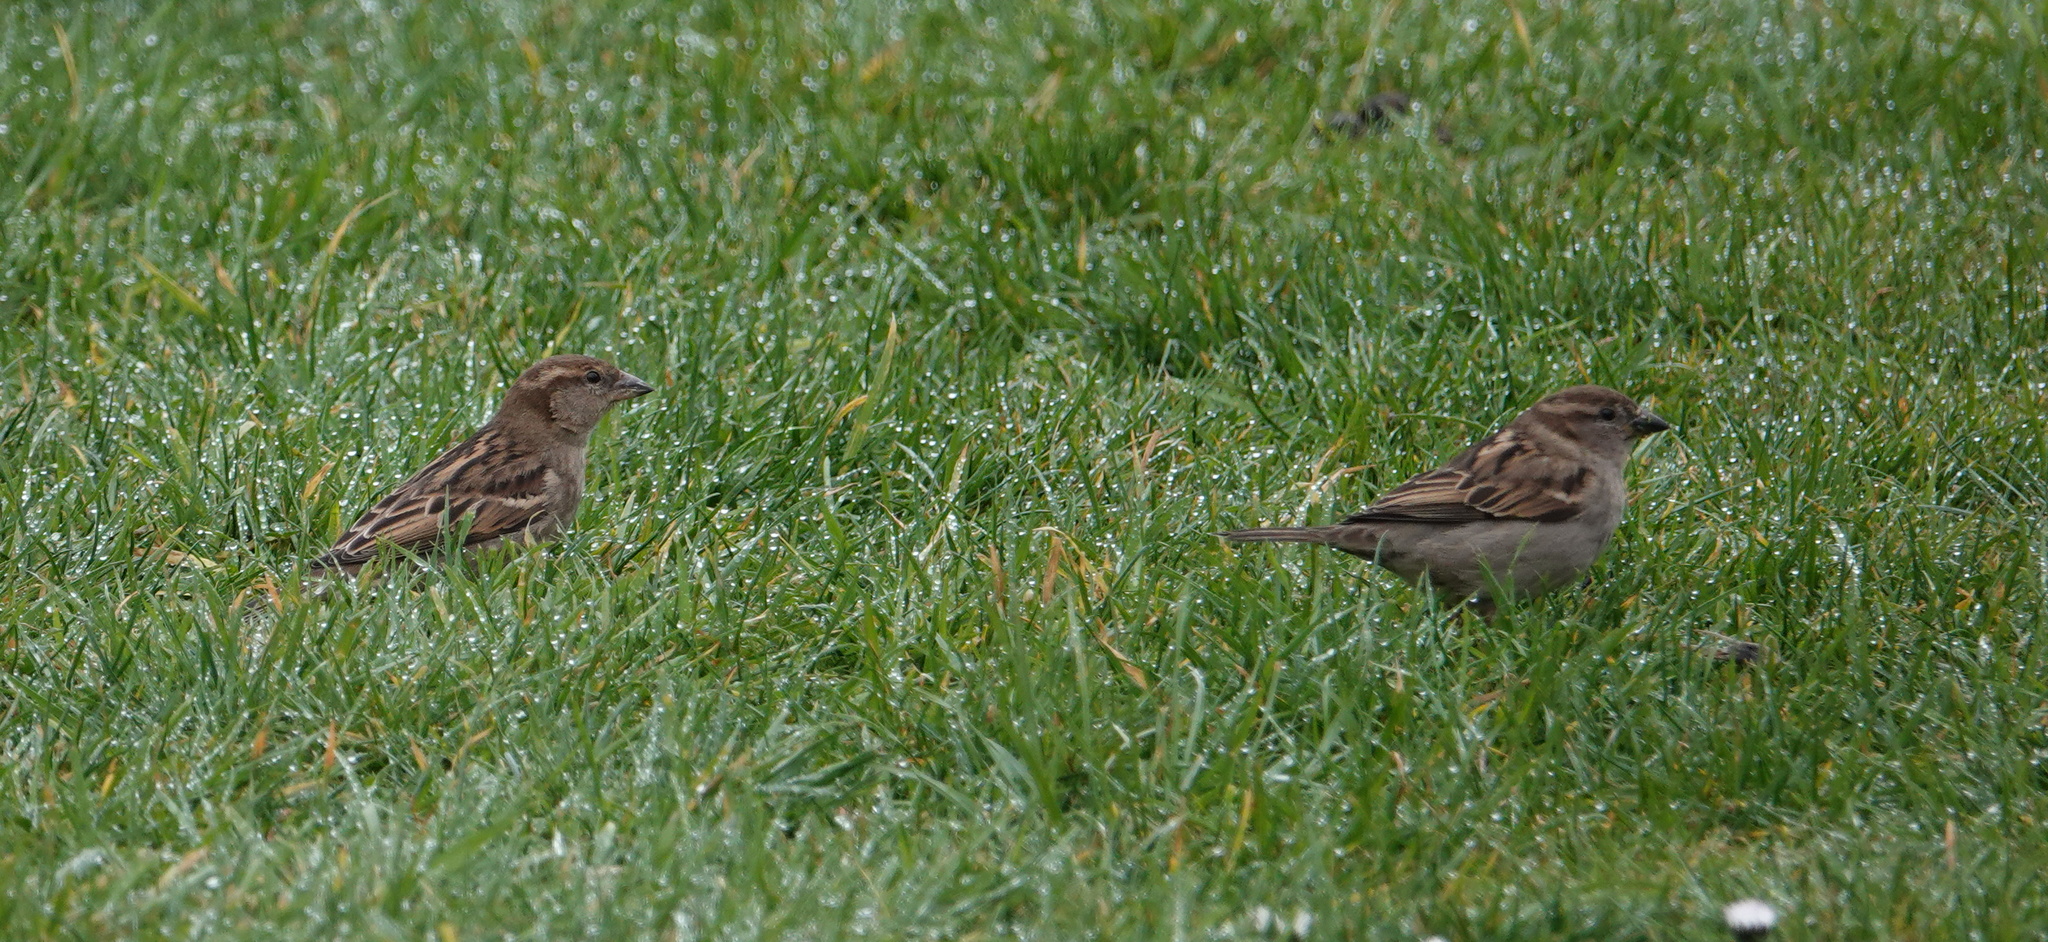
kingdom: Animalia
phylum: Chordata
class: Aves
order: Passeriformes
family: Passeridae
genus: Passer
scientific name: Passer domesticus
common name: House sparrow
